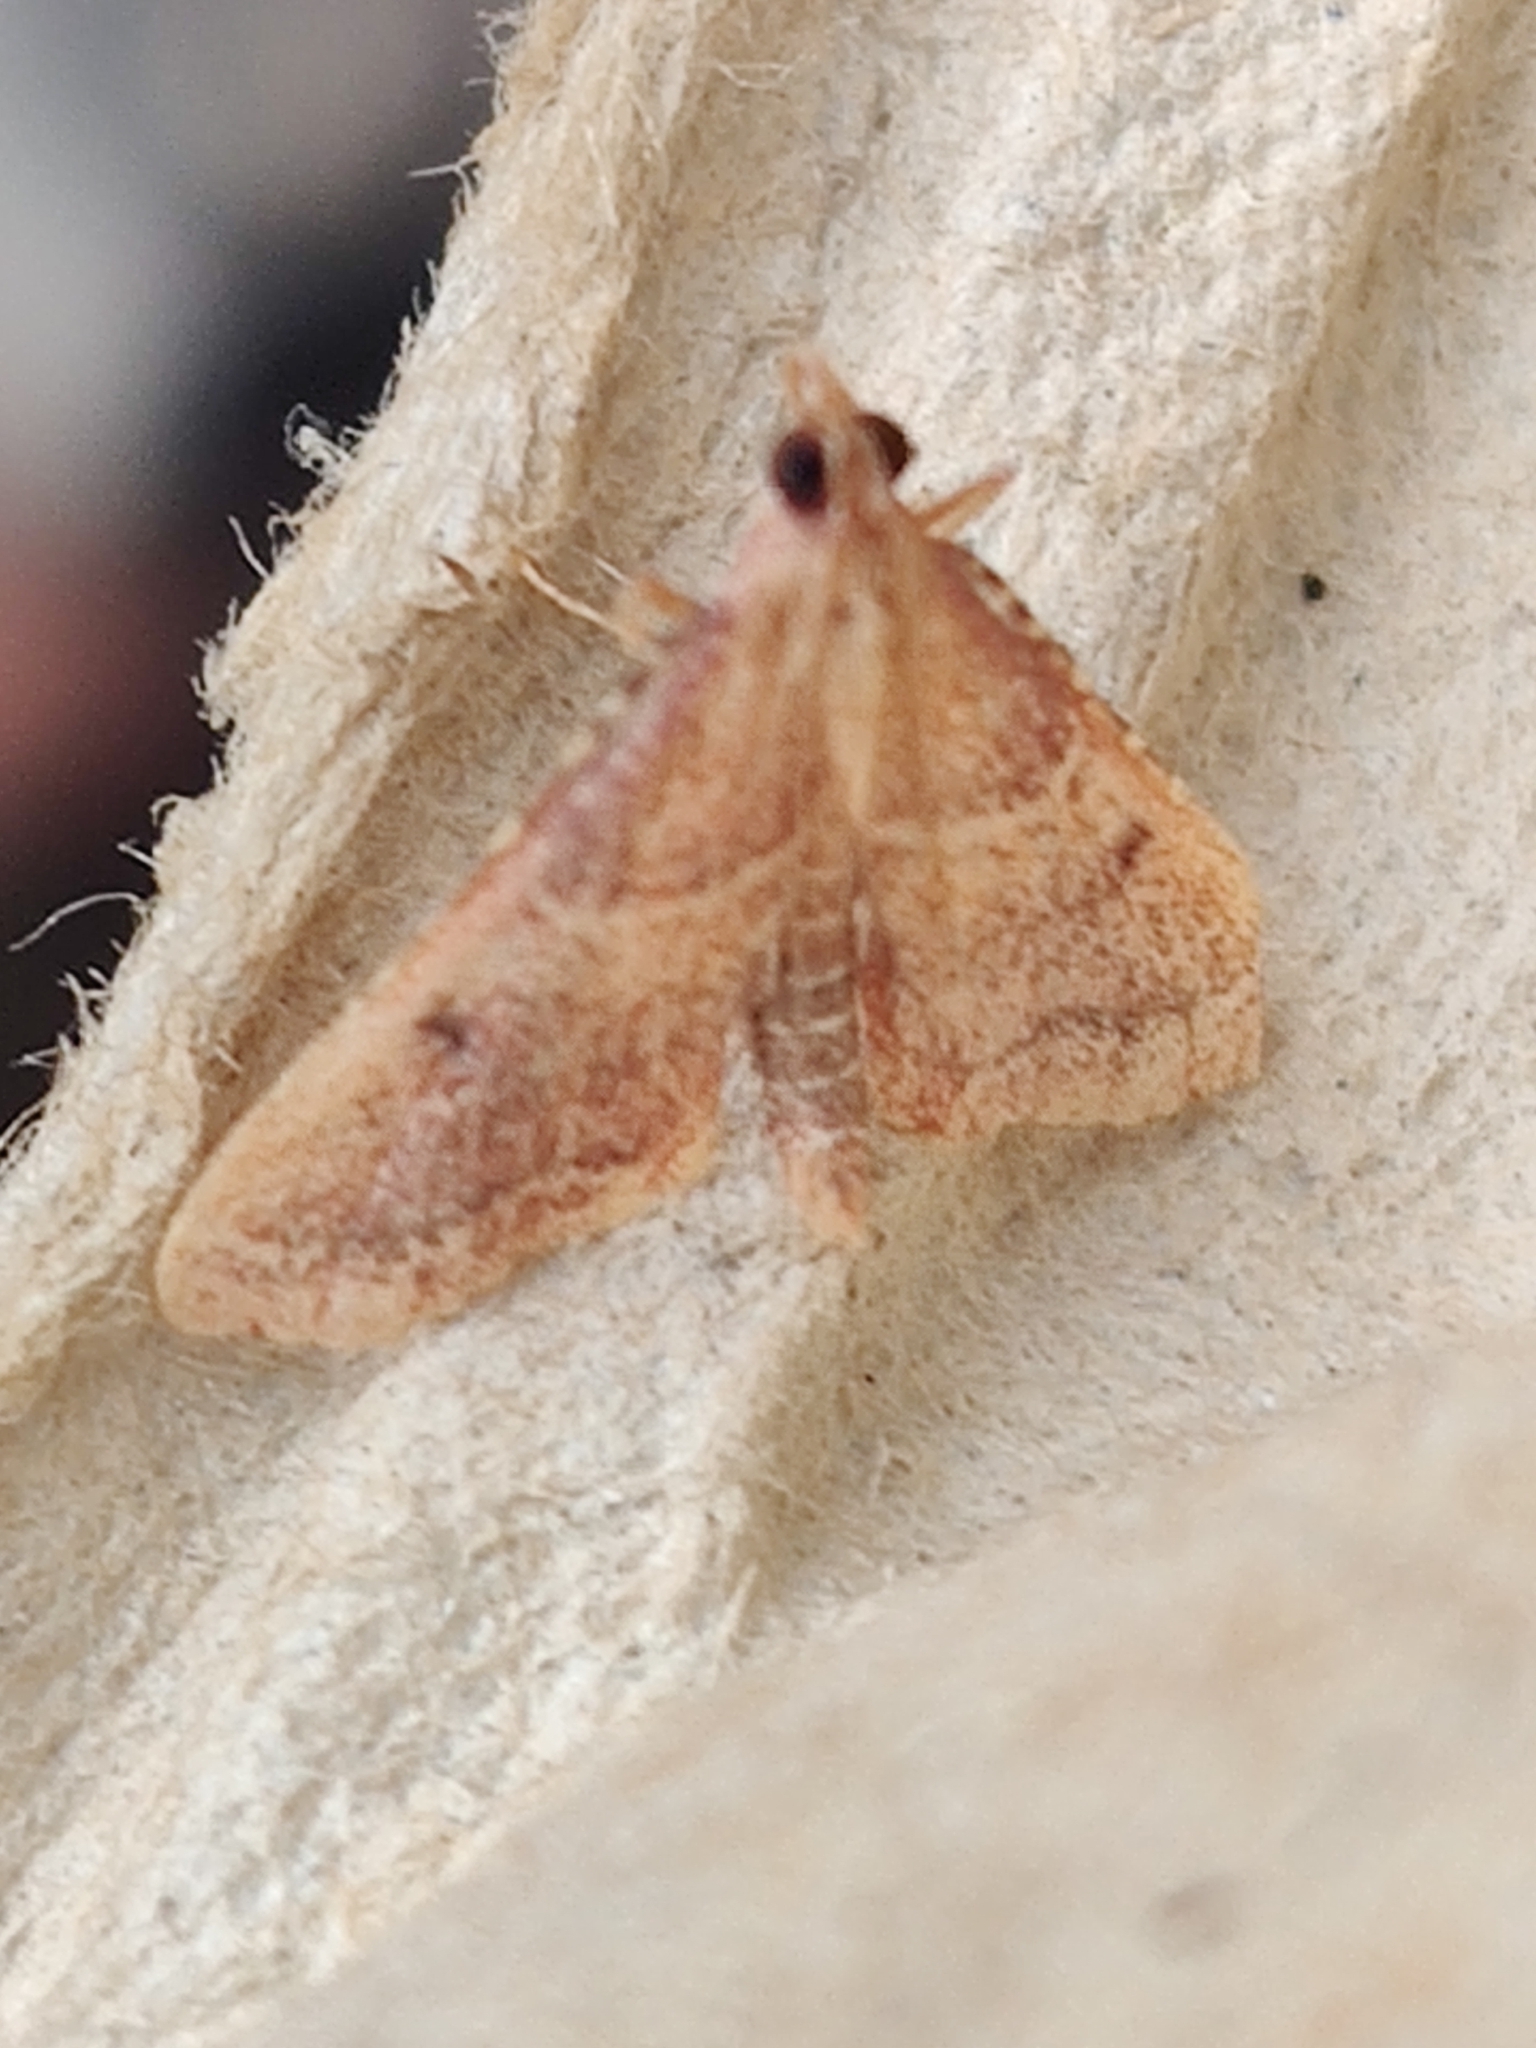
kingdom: Animalia
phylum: Arthropoda
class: Insecta
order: Lepidoptera
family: Pyralidae
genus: Endotricha
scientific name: Endotricha flammealis
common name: Rosy tabby
